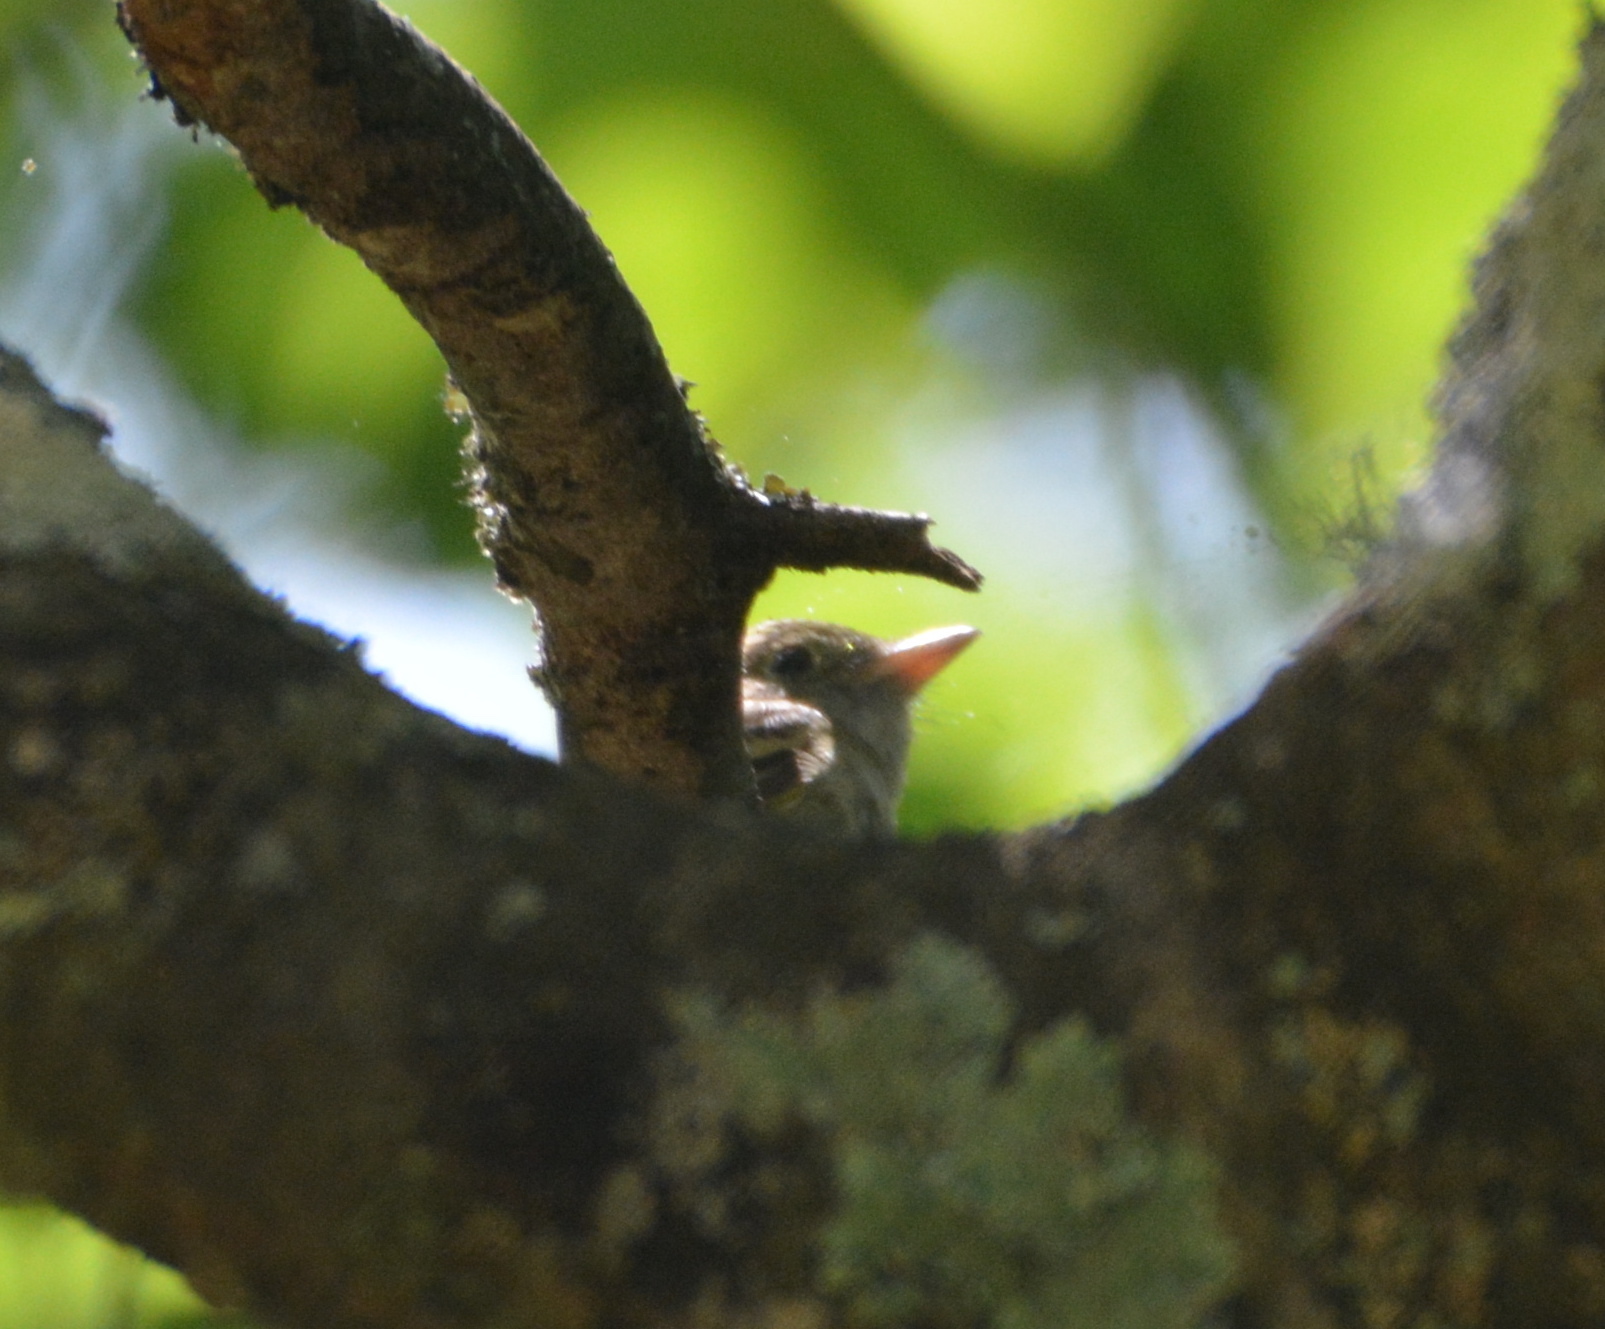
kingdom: Animalia
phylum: Chordata
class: Aves
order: Passeriformes
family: Tyrannidae
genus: Empidonax
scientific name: Empidonax virescens
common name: Acadian flycatcher
